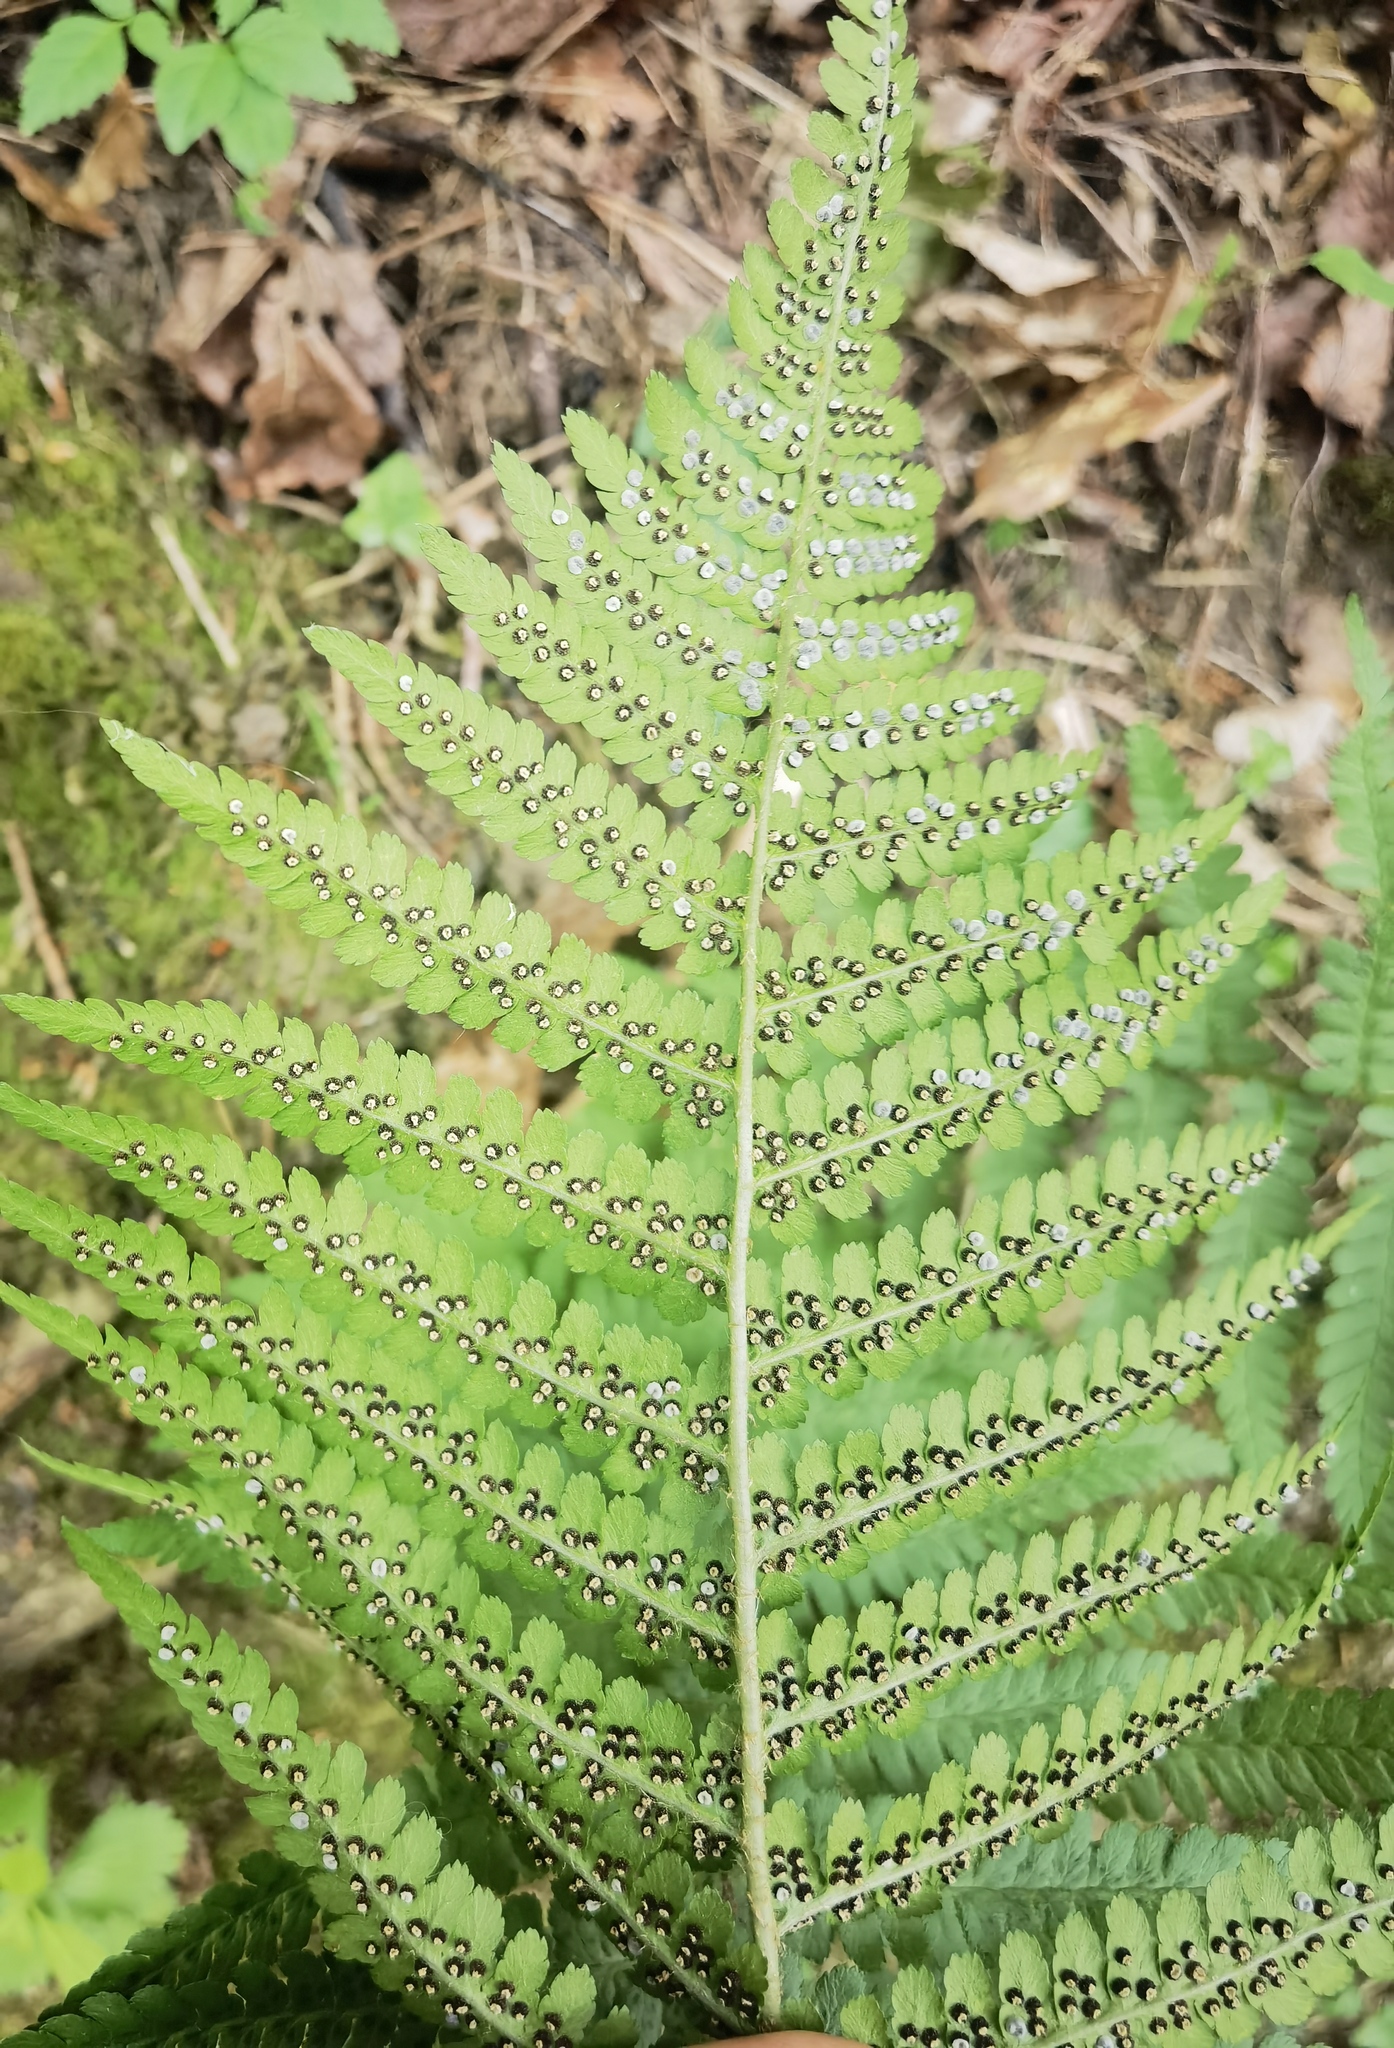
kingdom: Plantae
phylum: Tracheophyta
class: Polypodiopsida
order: Polypodiales
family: Dryopteridaceae
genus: Dryopteris
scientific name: Dryopteris filix-mas
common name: Male fern
